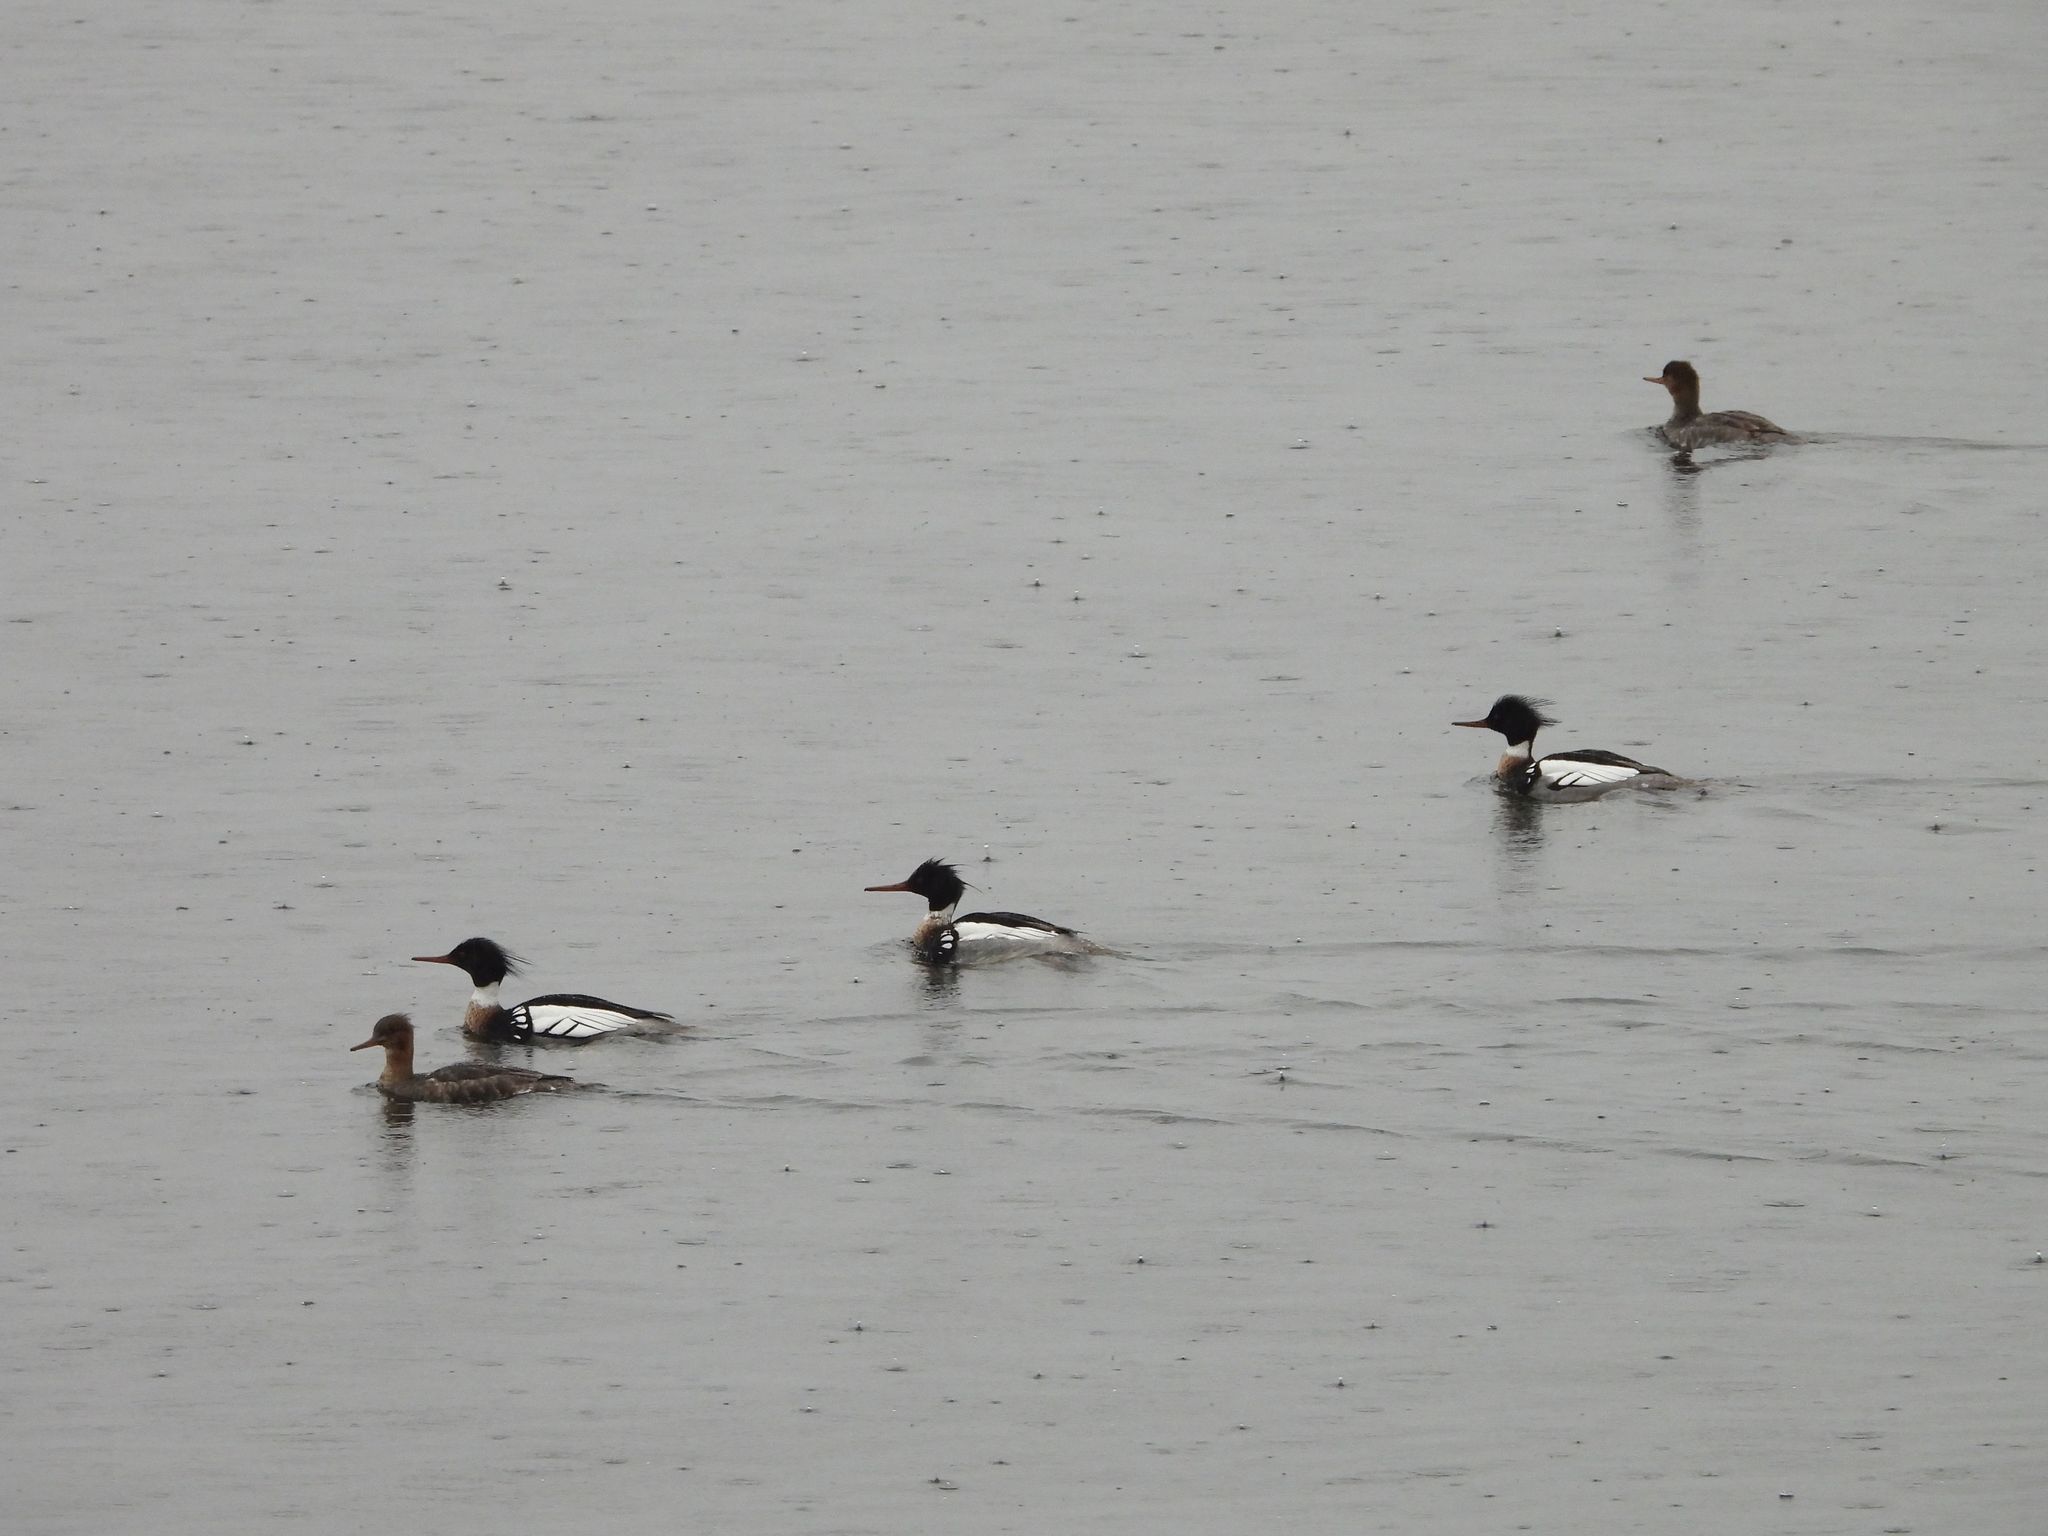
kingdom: Animalia
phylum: Chordata
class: Aves
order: Anseriformes
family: Anatidae
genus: Mergus
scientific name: Mergus serrator
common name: Red-breasted merganser
